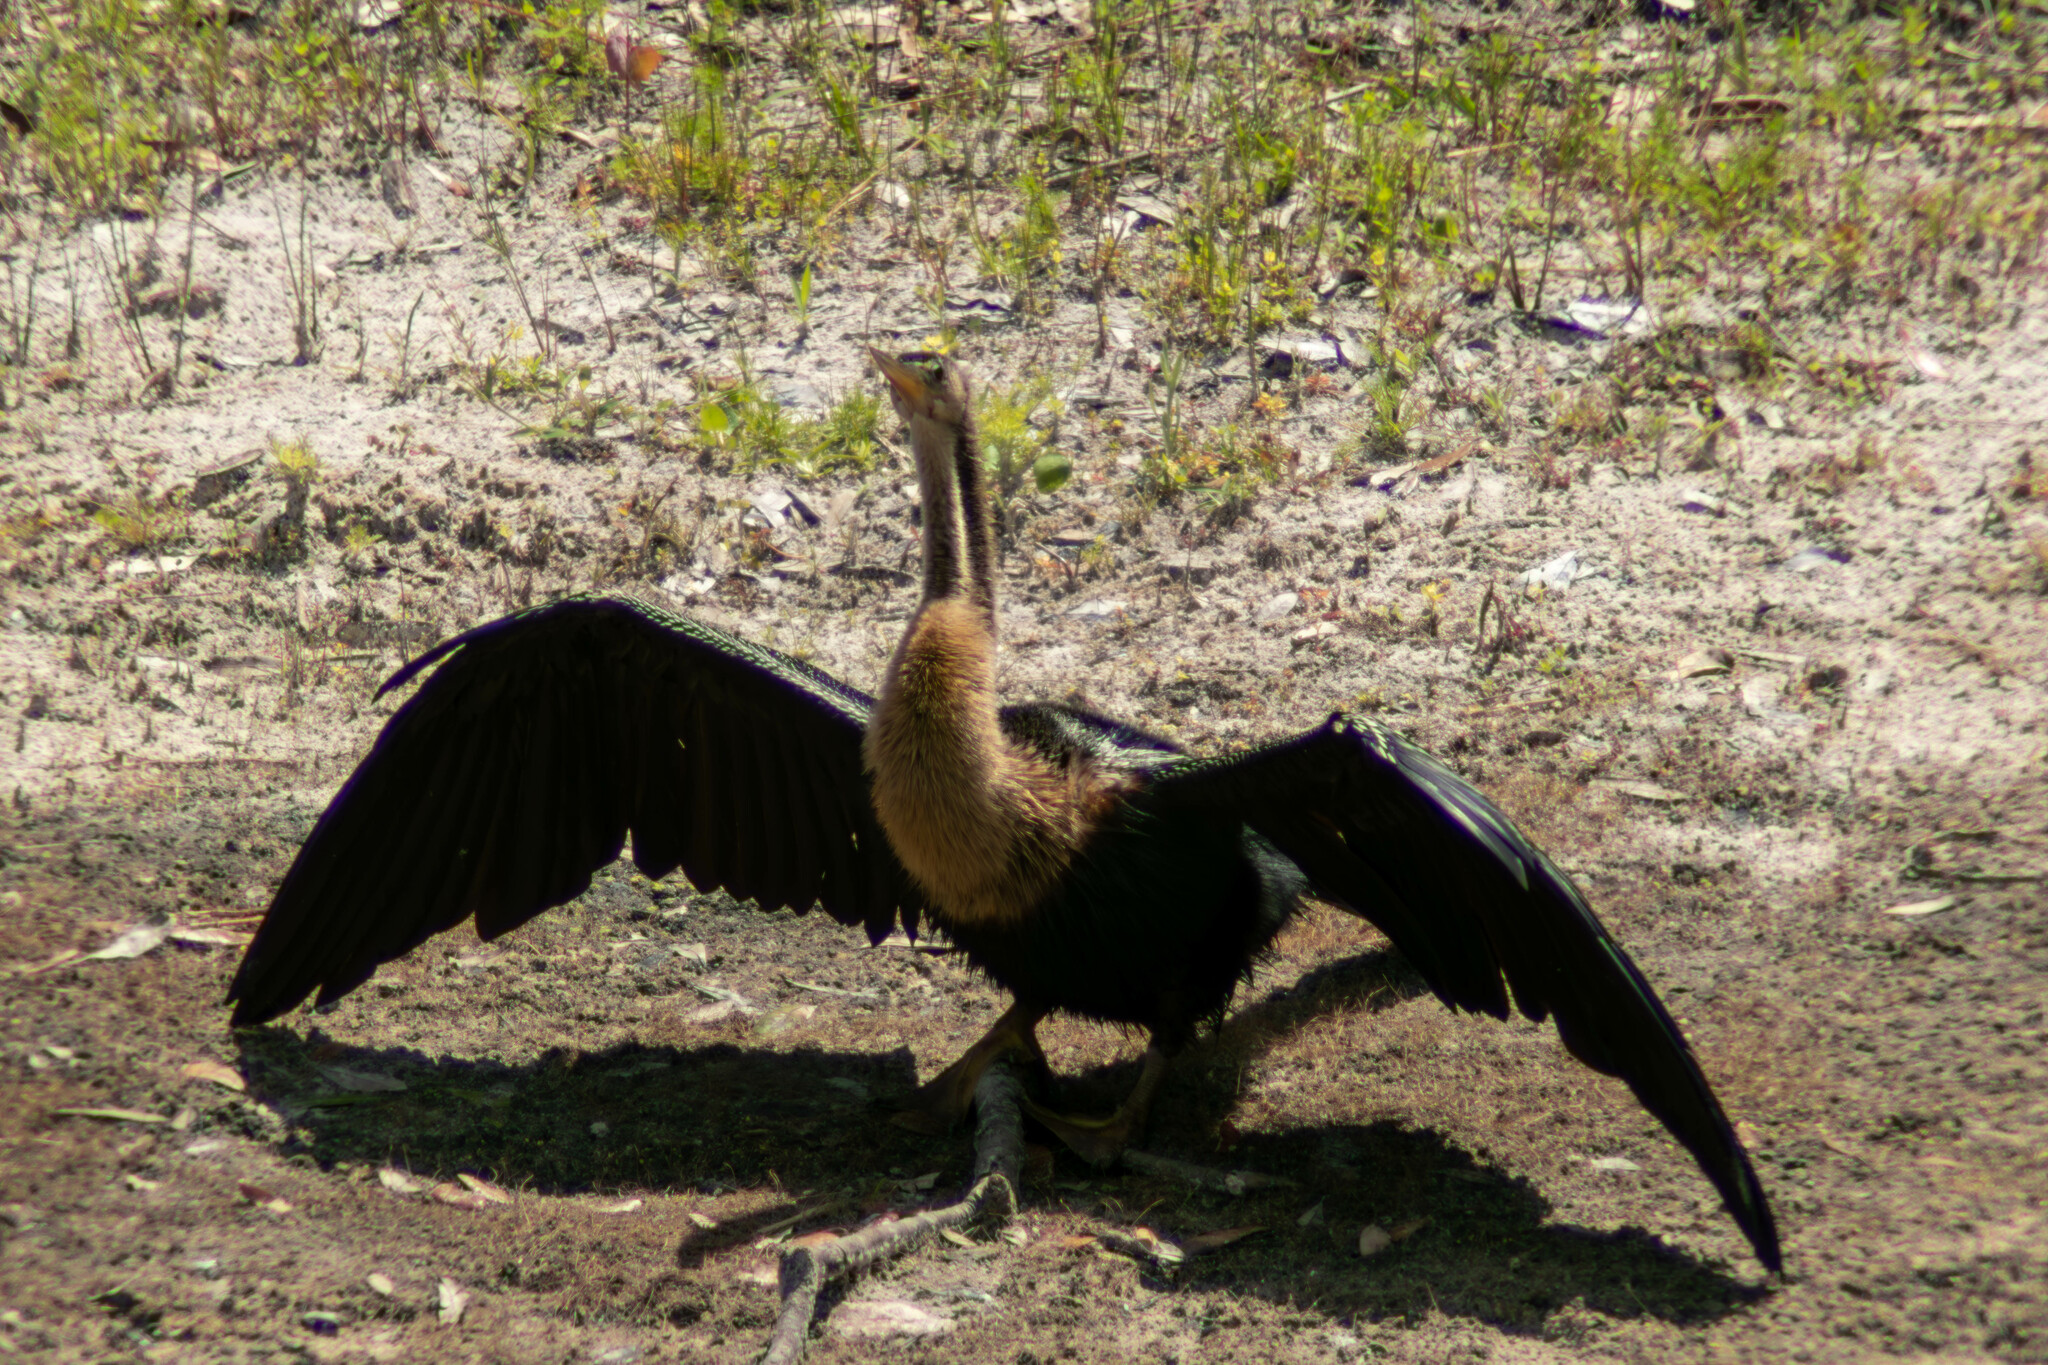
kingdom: Animalia
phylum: Chordata
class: Aves
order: Suliformes
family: Anhingidae
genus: Anhinga
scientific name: Anhinga anhinga
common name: Anhinga
